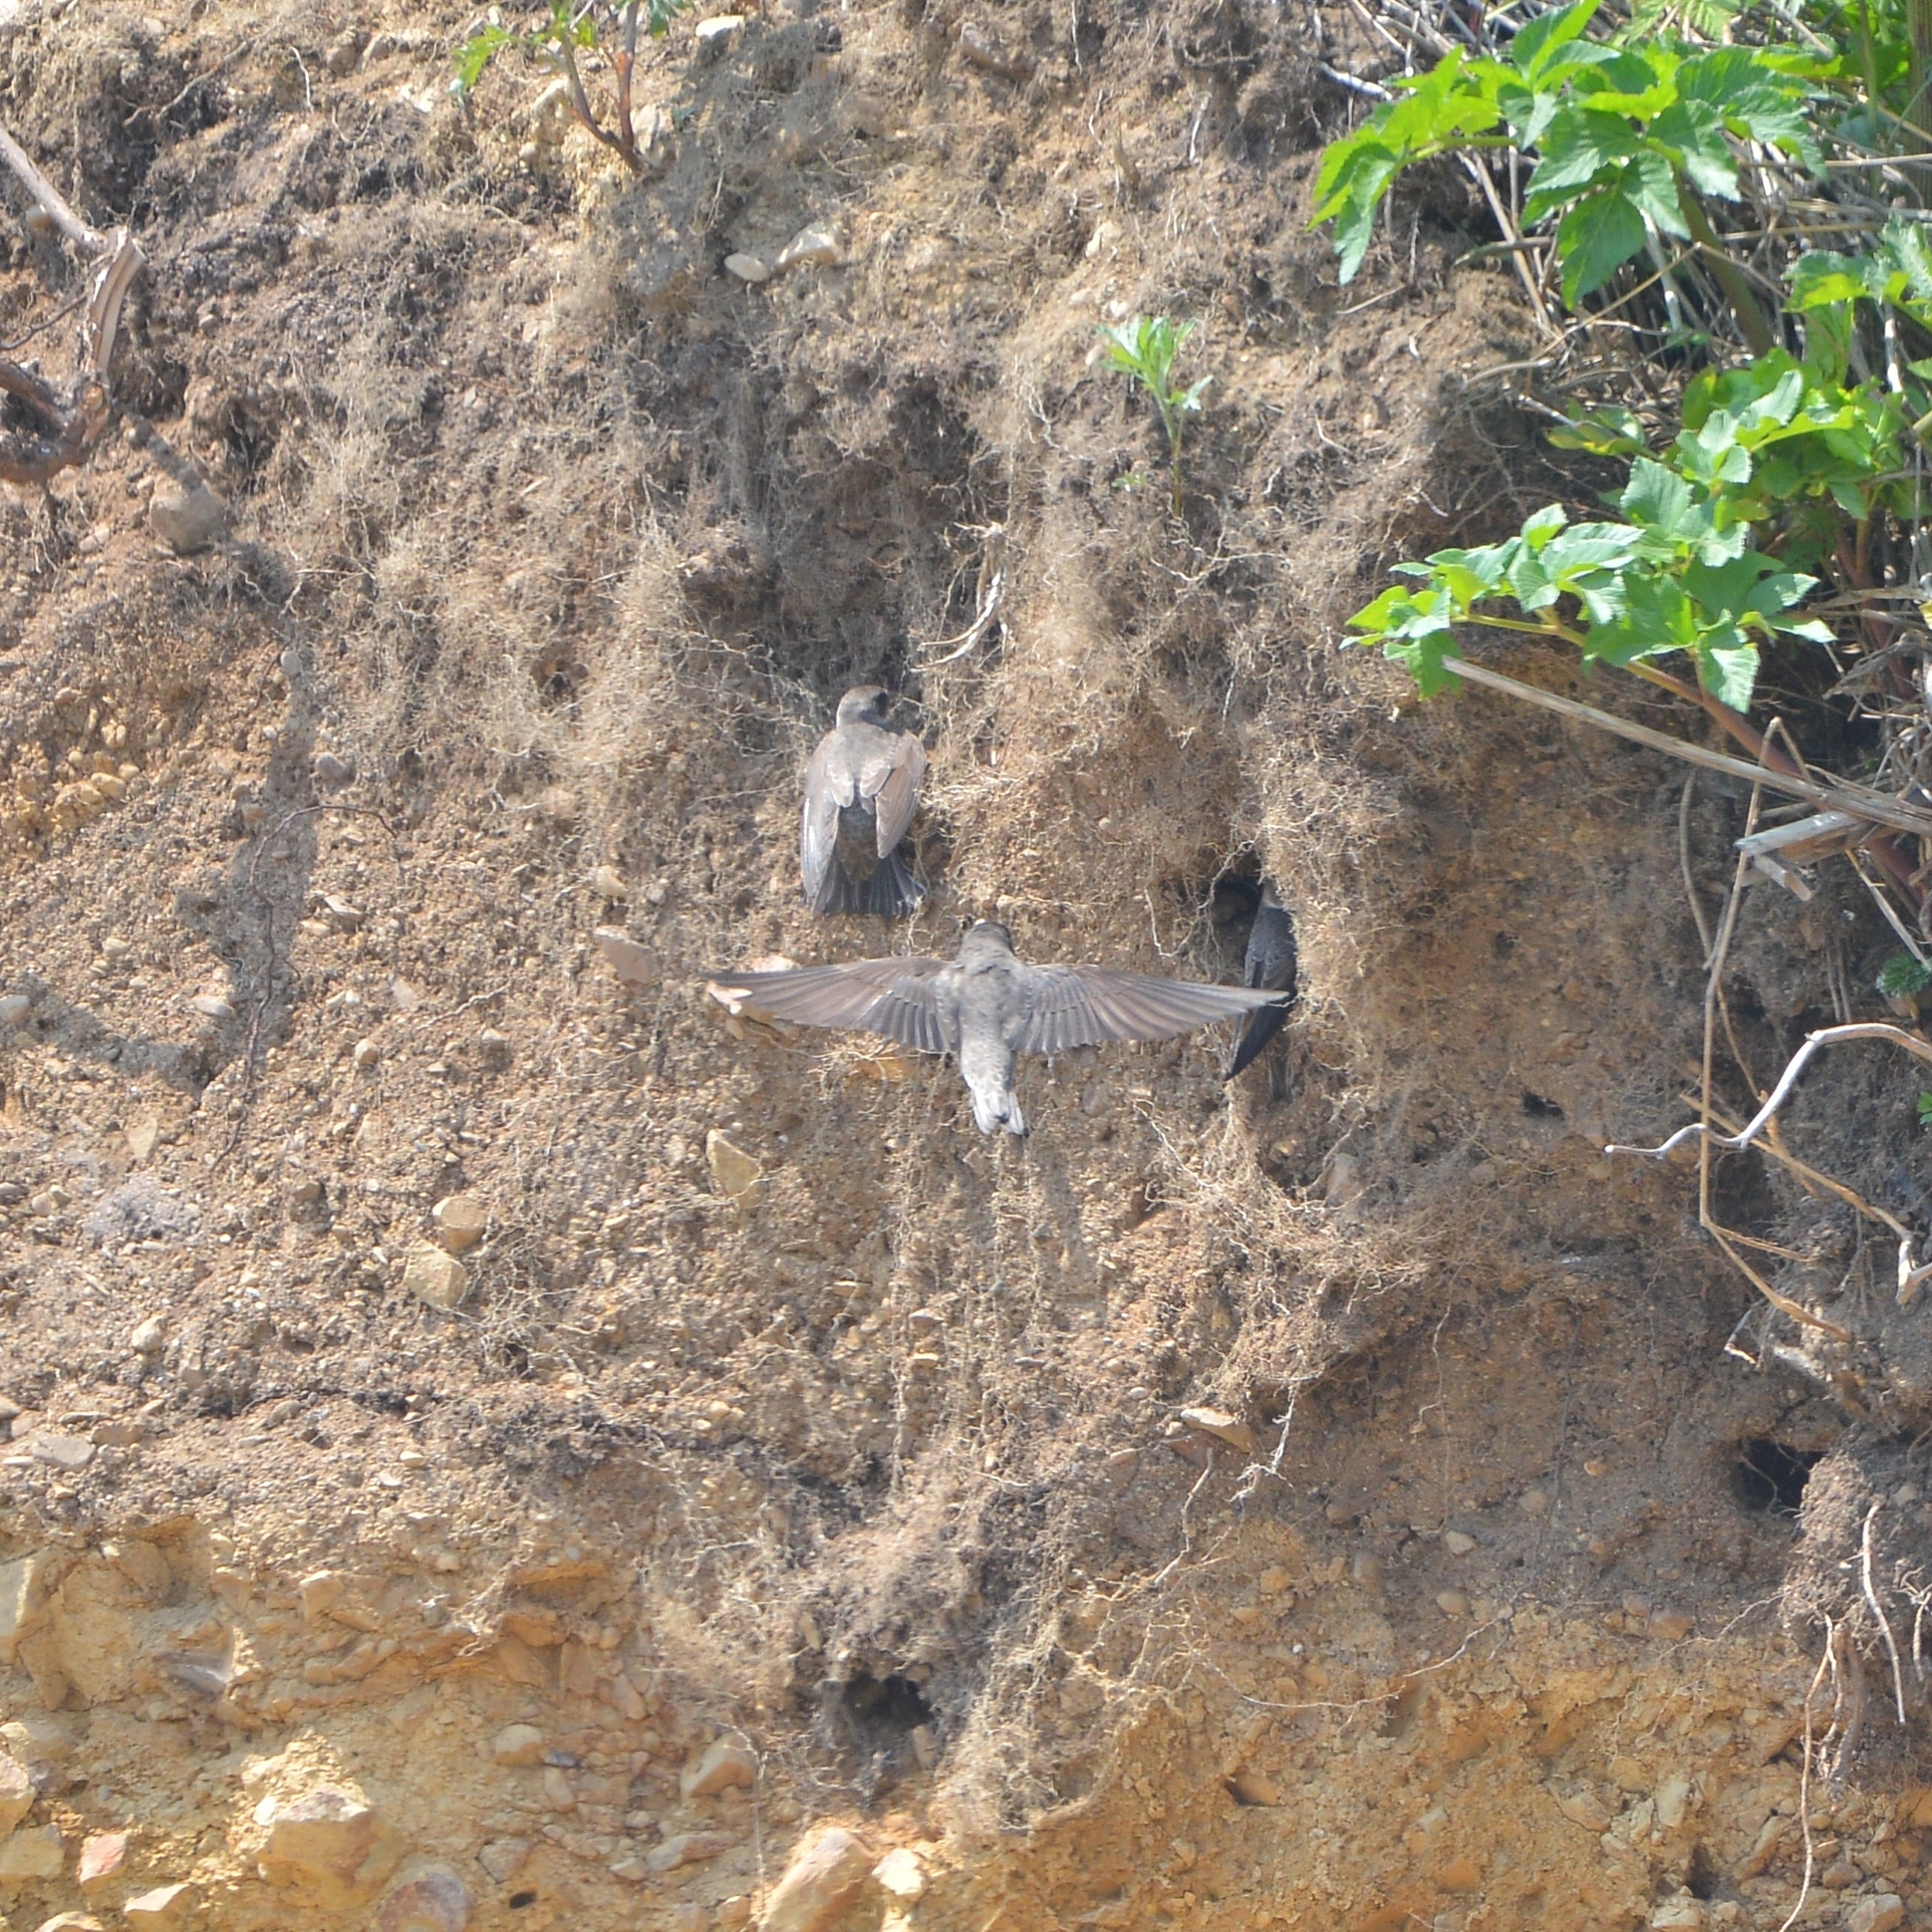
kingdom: Animalia
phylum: Chordata
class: Aves
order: Passeriformes
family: Hirundinidae
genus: Riparia
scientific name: Riparia riparia
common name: Sand martin
